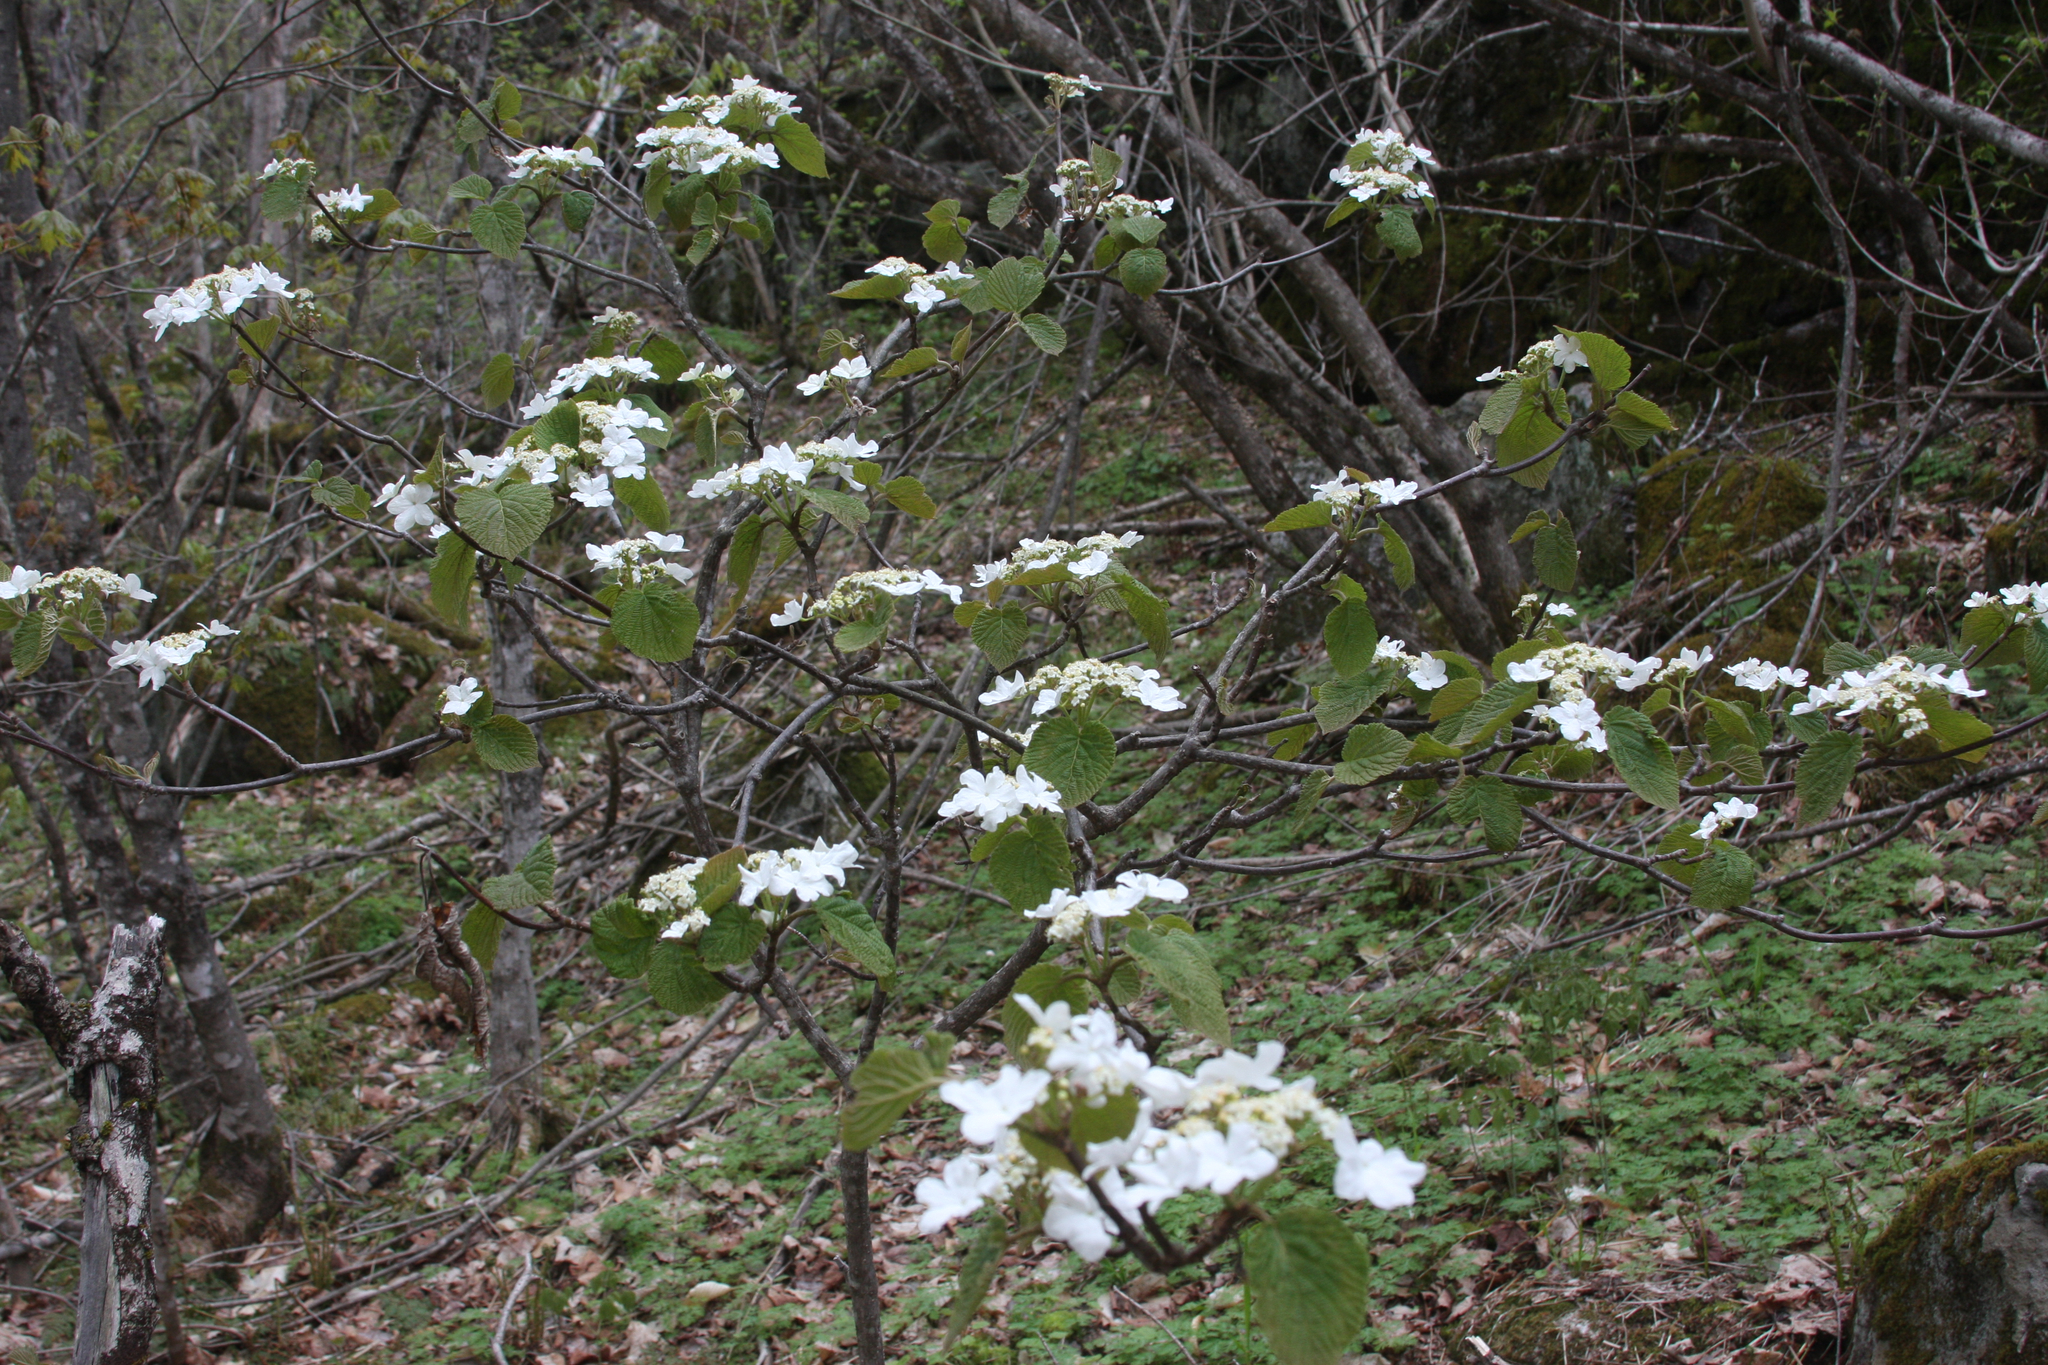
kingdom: Plantae
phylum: Tracheophyta
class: Magnoliopsida
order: Dipsacales
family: Viburnaceae
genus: Viburnum
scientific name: Viburnum lantanoides
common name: Hobblebush
